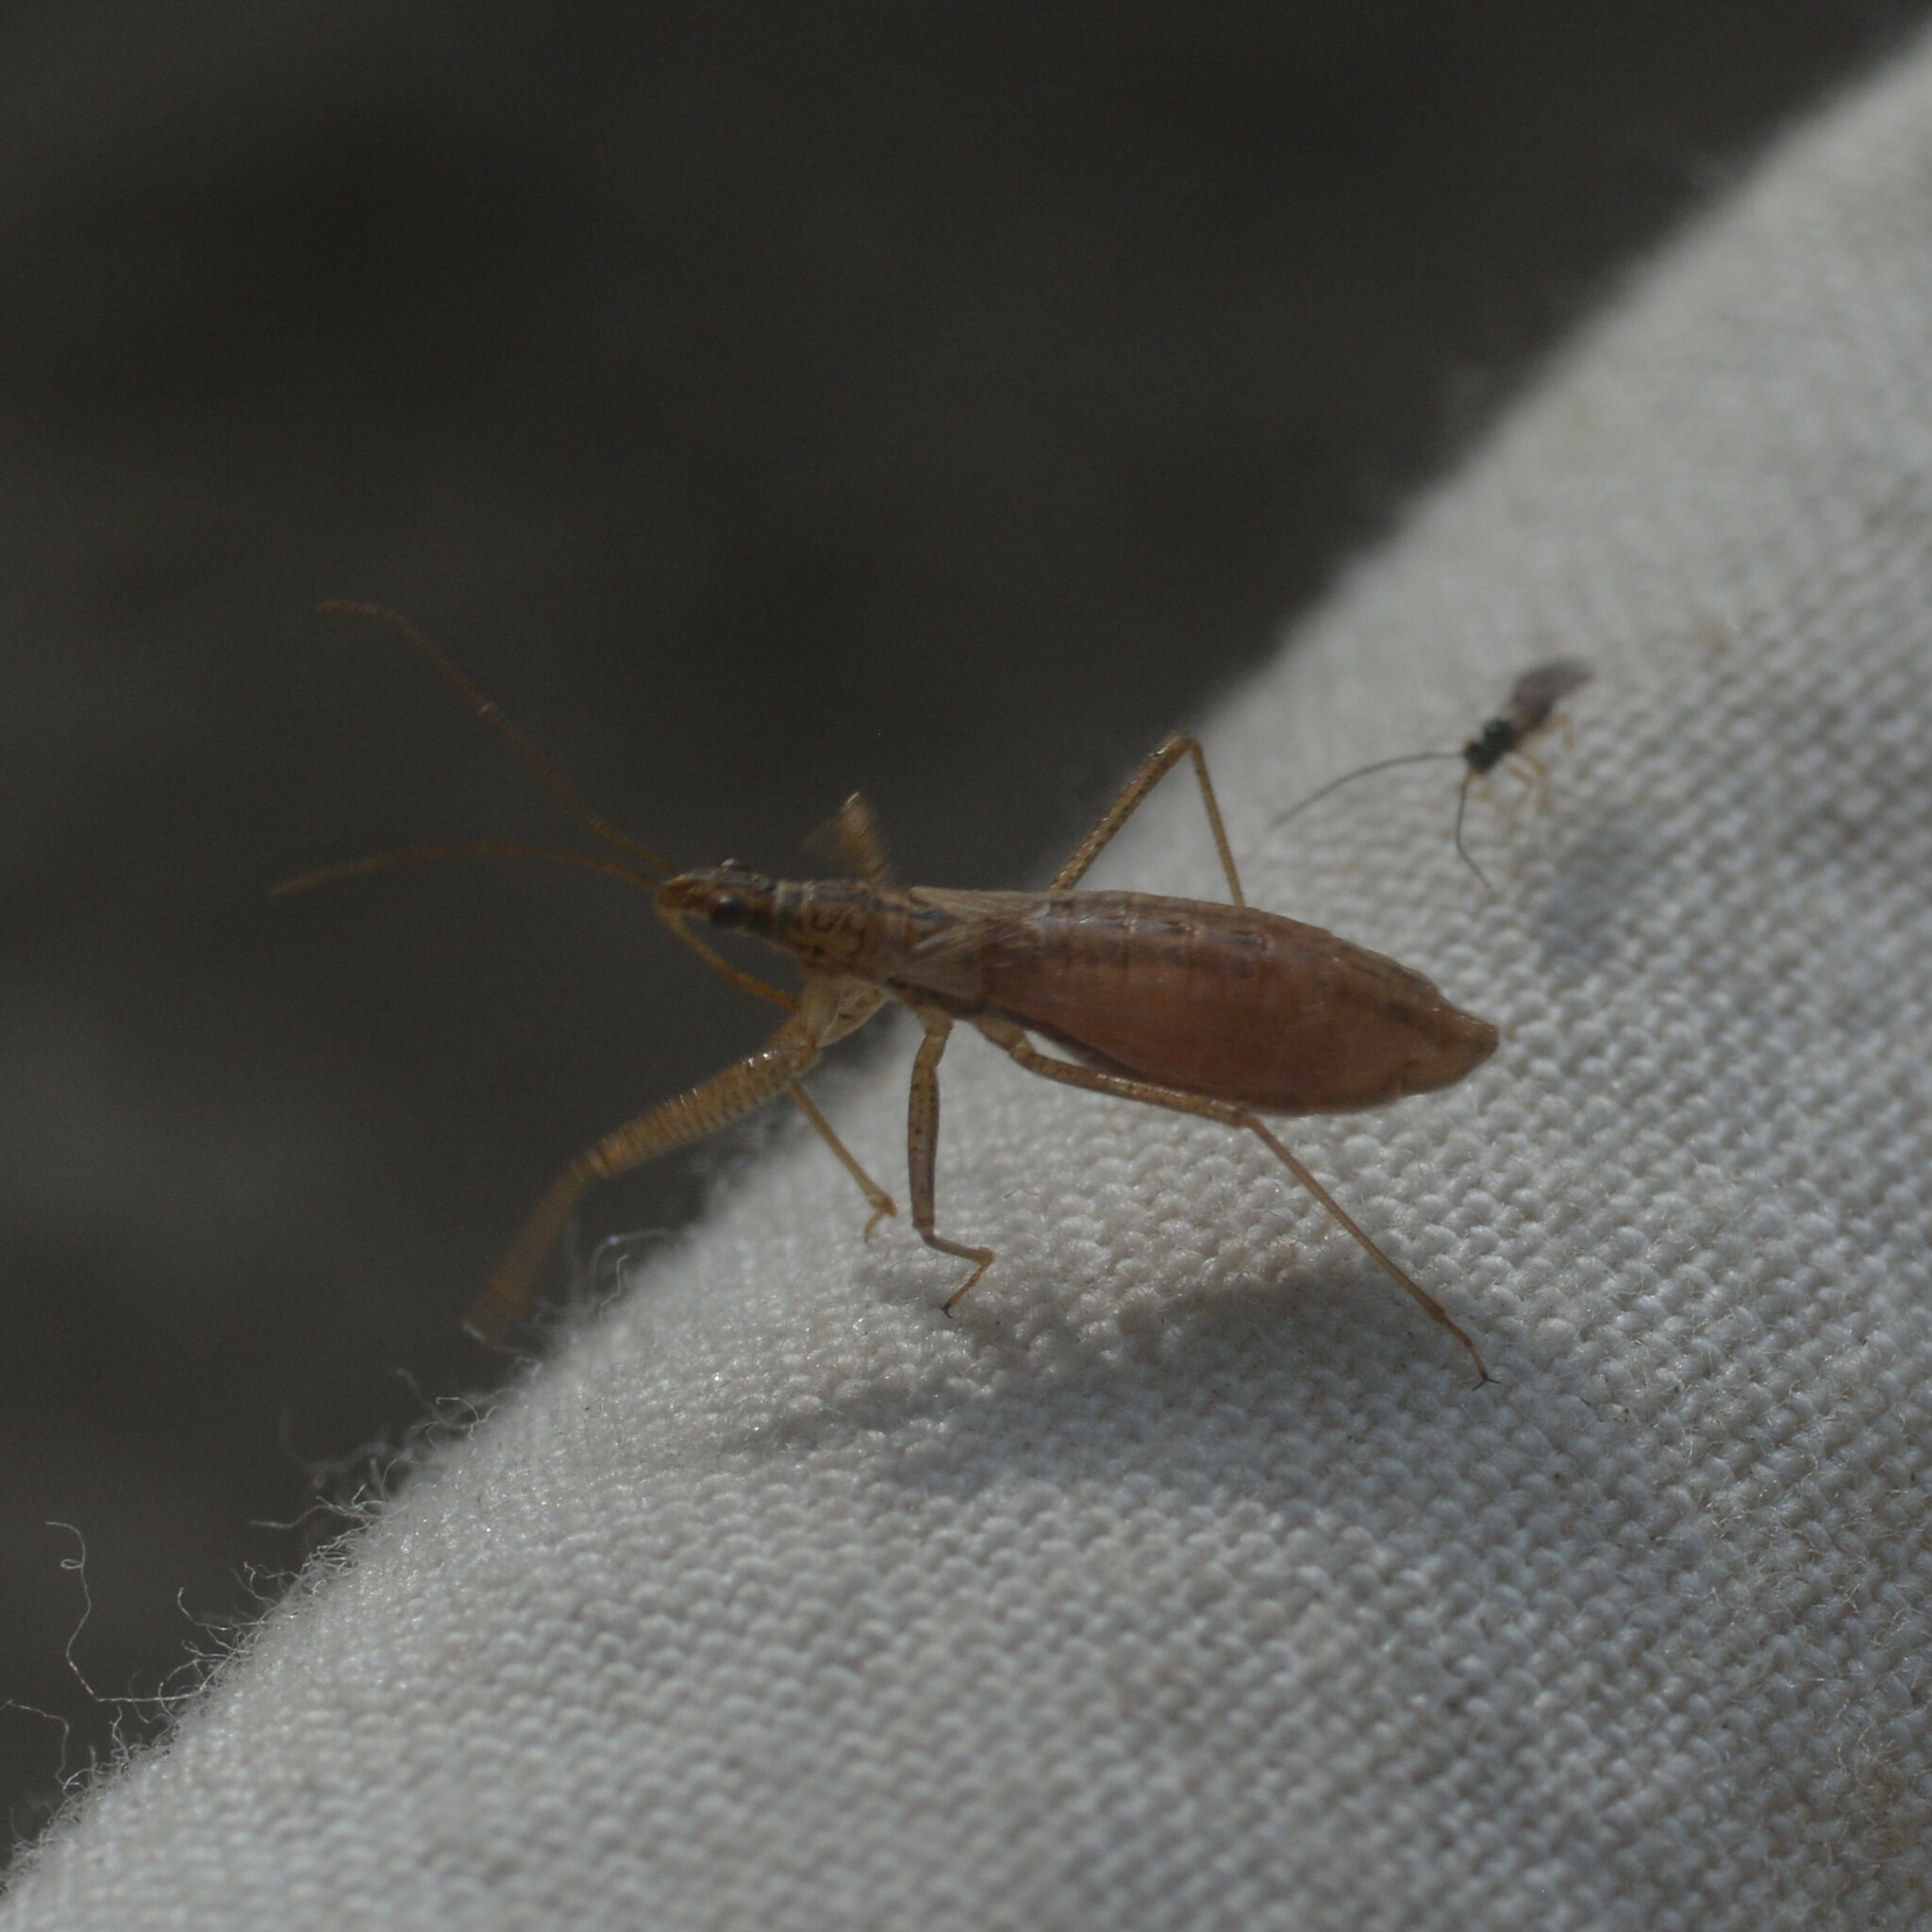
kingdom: Animalia
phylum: Arthropoda
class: Insecta
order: Hemiptera
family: Nabidae
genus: Nabis
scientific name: Nabis limbatus
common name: Marsh damselbug
